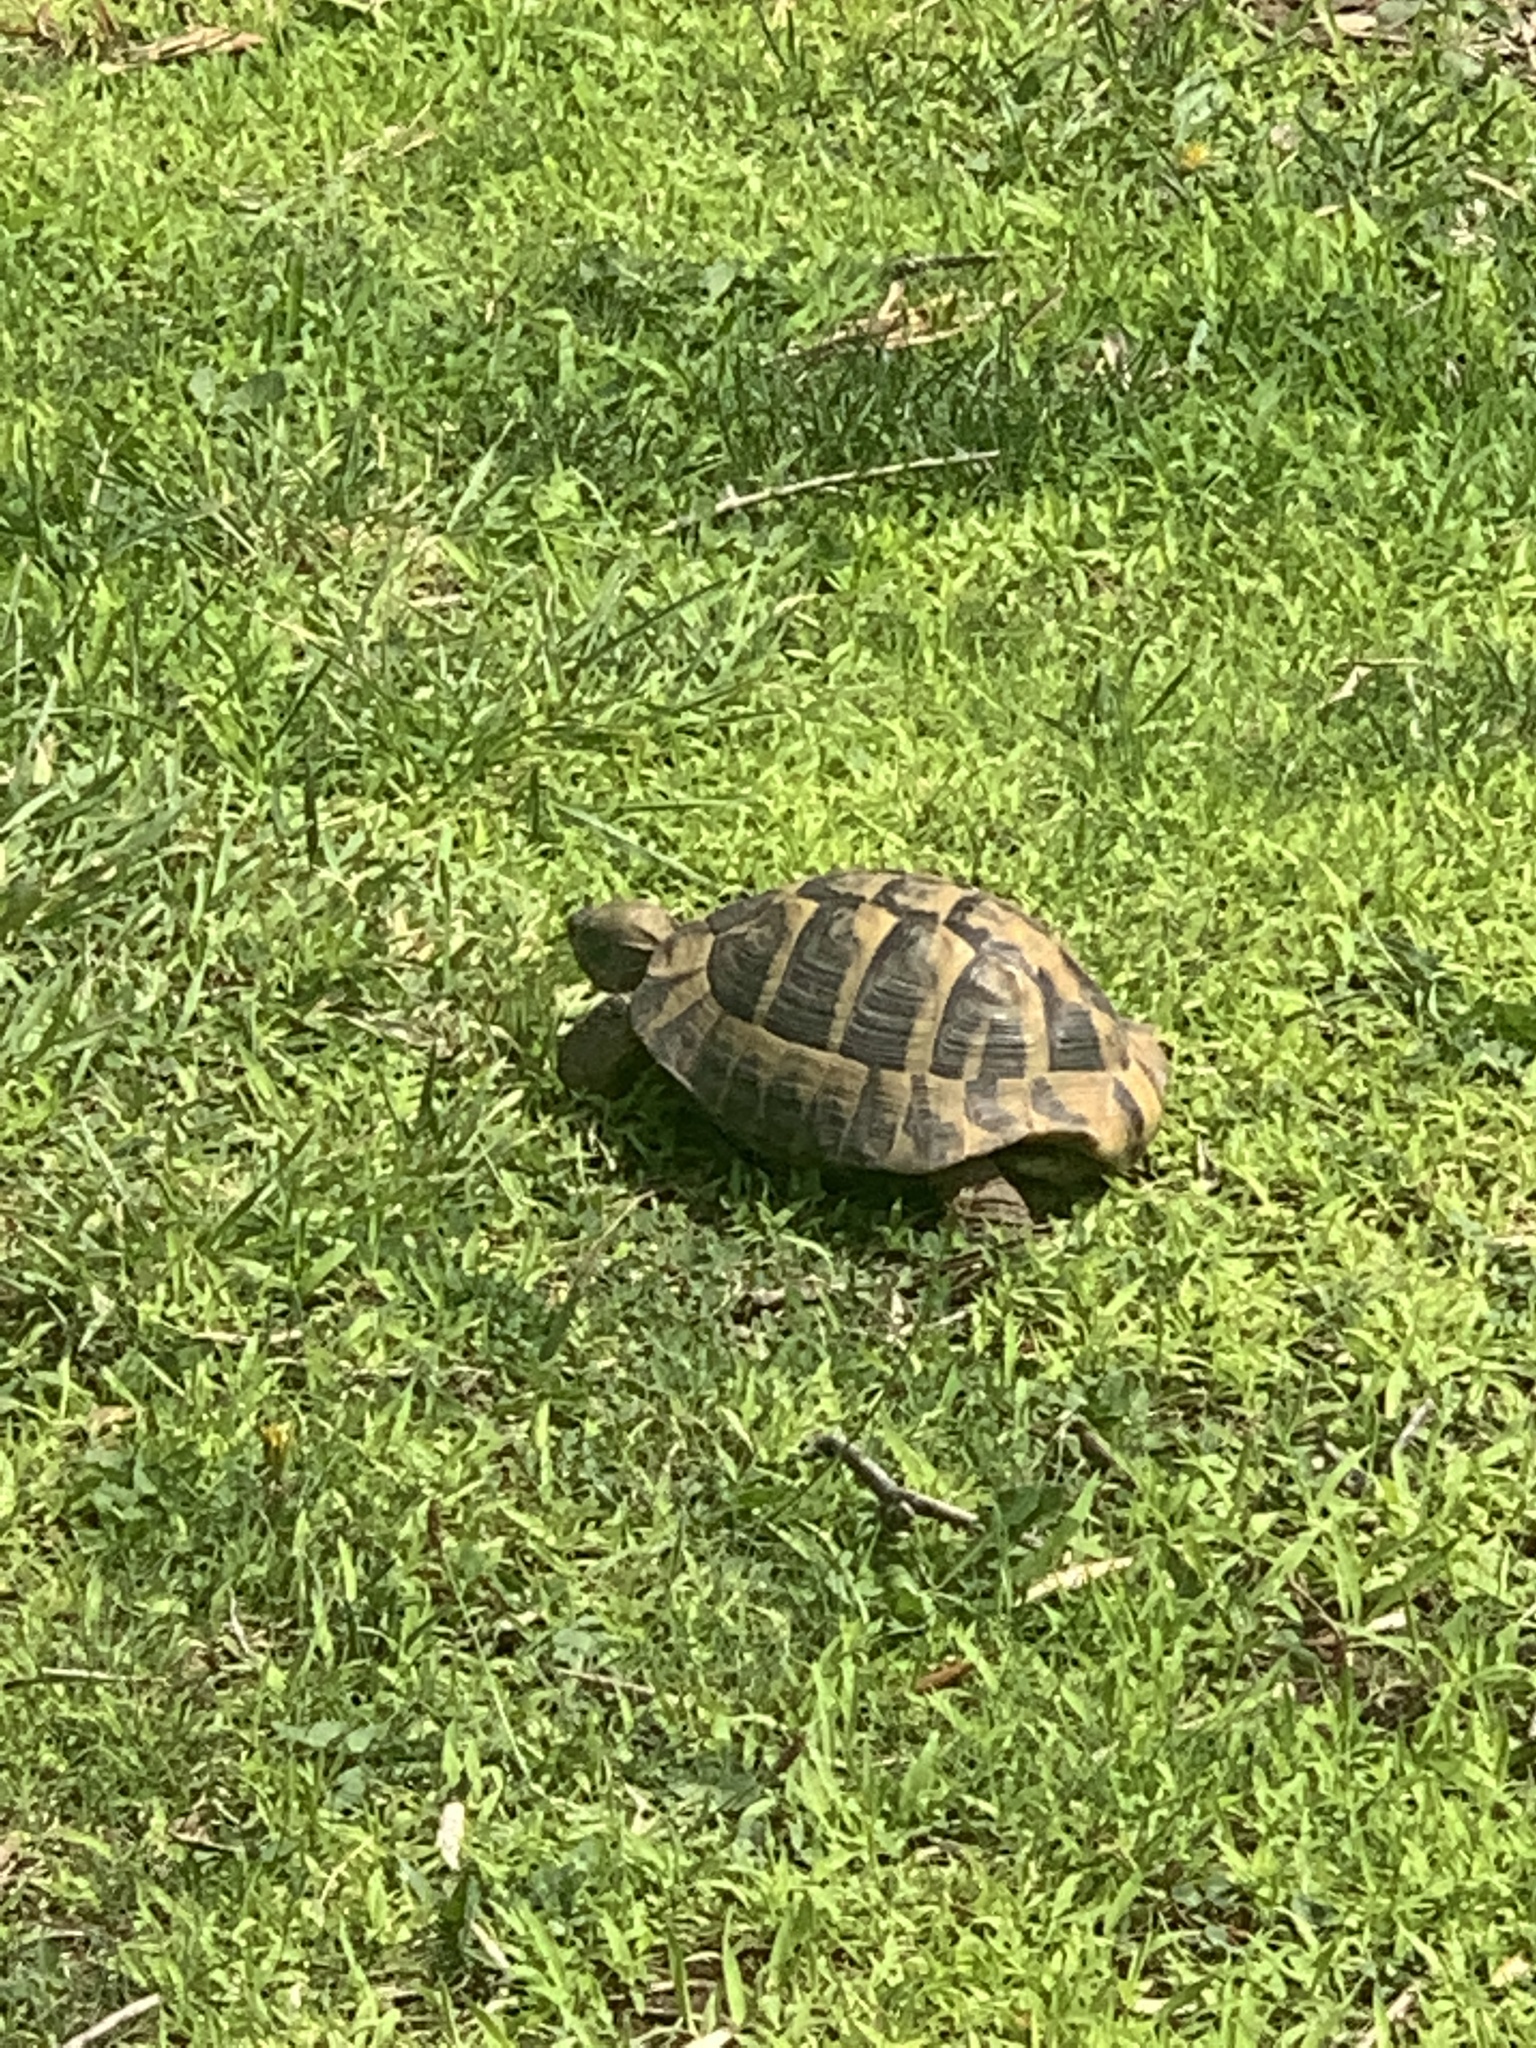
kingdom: Animalia
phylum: Chordata
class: Testudines
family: Testudinidae
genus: Testudo
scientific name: Testudo hermanni
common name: Hermann's tortoise
